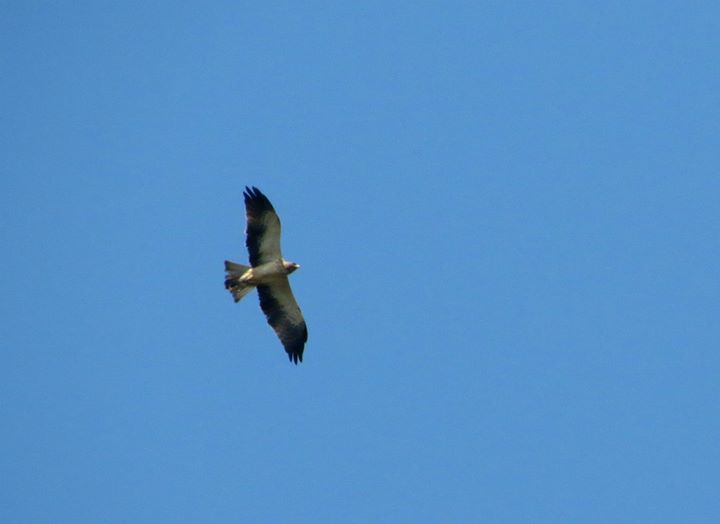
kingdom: Animalia
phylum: Chordata
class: Aves
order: Accipitriformes
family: Accipitridae
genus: Hieraaetus
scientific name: Hieraaetus pennatus
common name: Booted eagle
